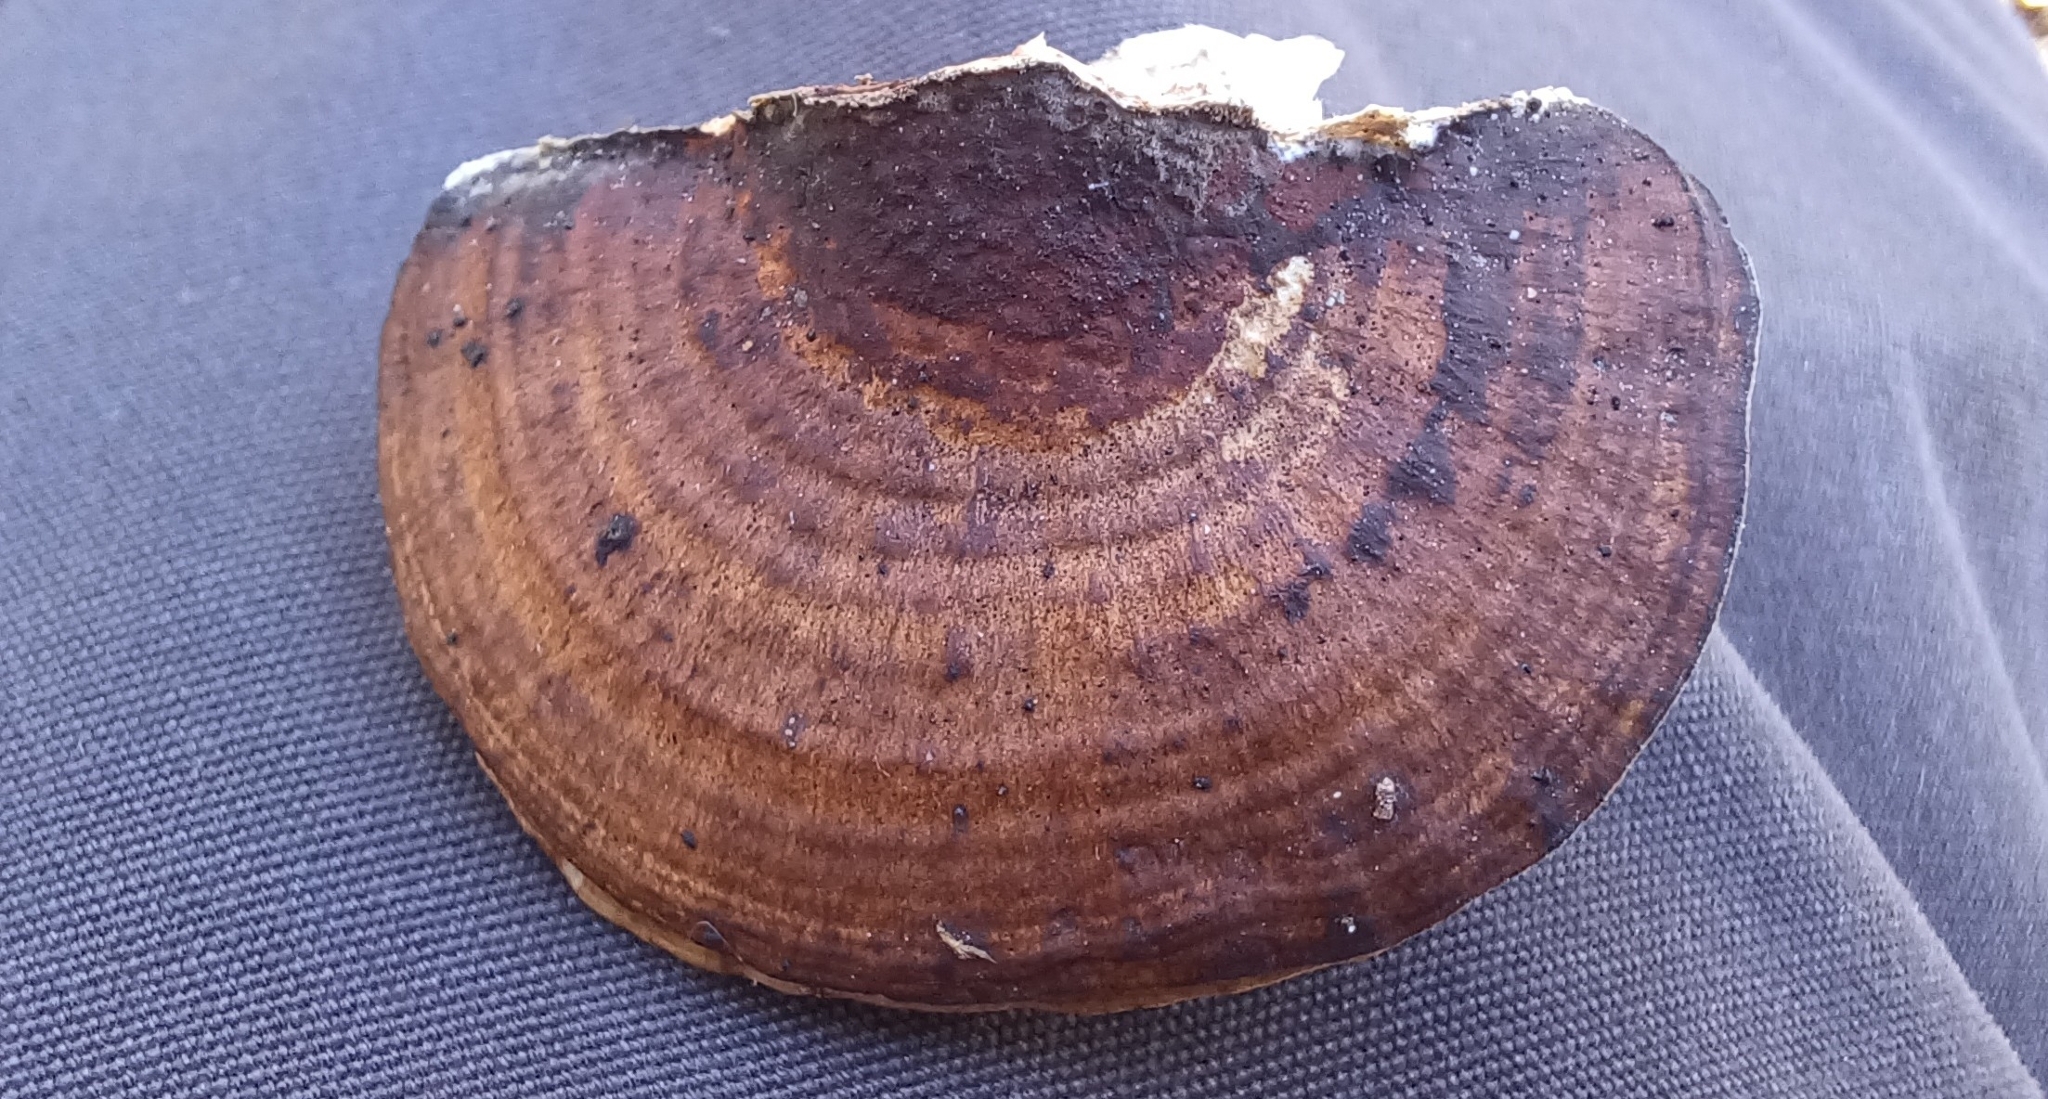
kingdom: Fungi
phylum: Basidiomycota
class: Agaricomycetes
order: Polyporales
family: Polyporaceae
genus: Daedaleopsis
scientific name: Daedaleopsis confragosa
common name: Blushing bracket
